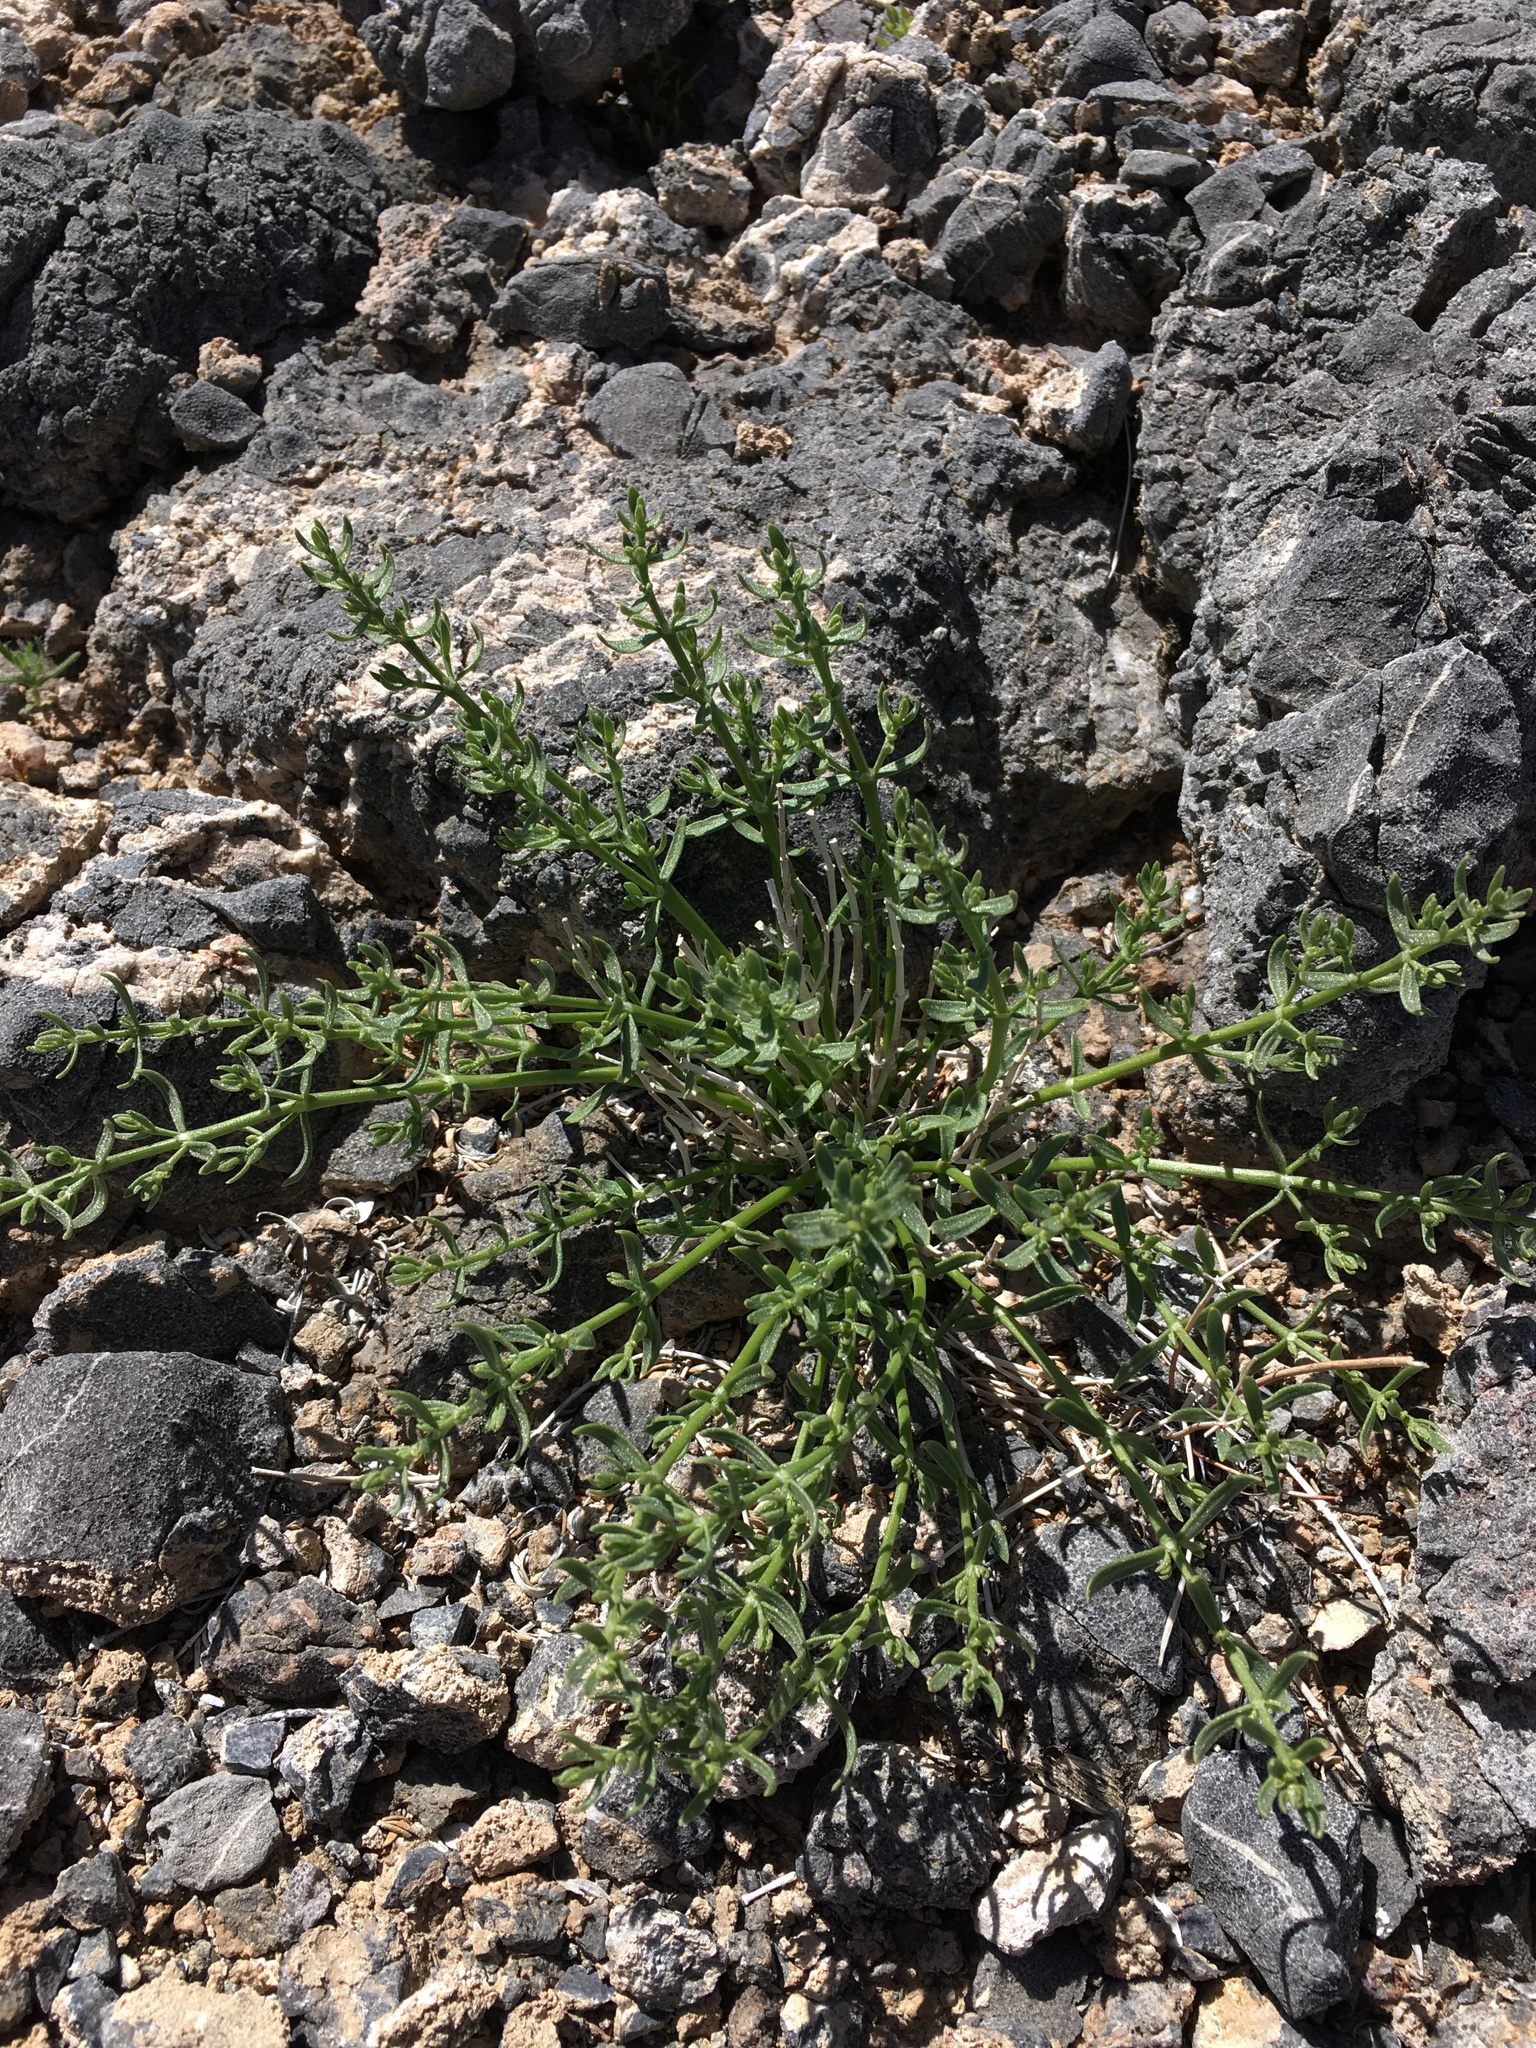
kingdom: Plantae
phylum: Tracheophyta
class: Magnoliopsida
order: Caryophyllales
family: Caryophyllaceae
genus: Scopulophila
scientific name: Scopulophila rixfordii
